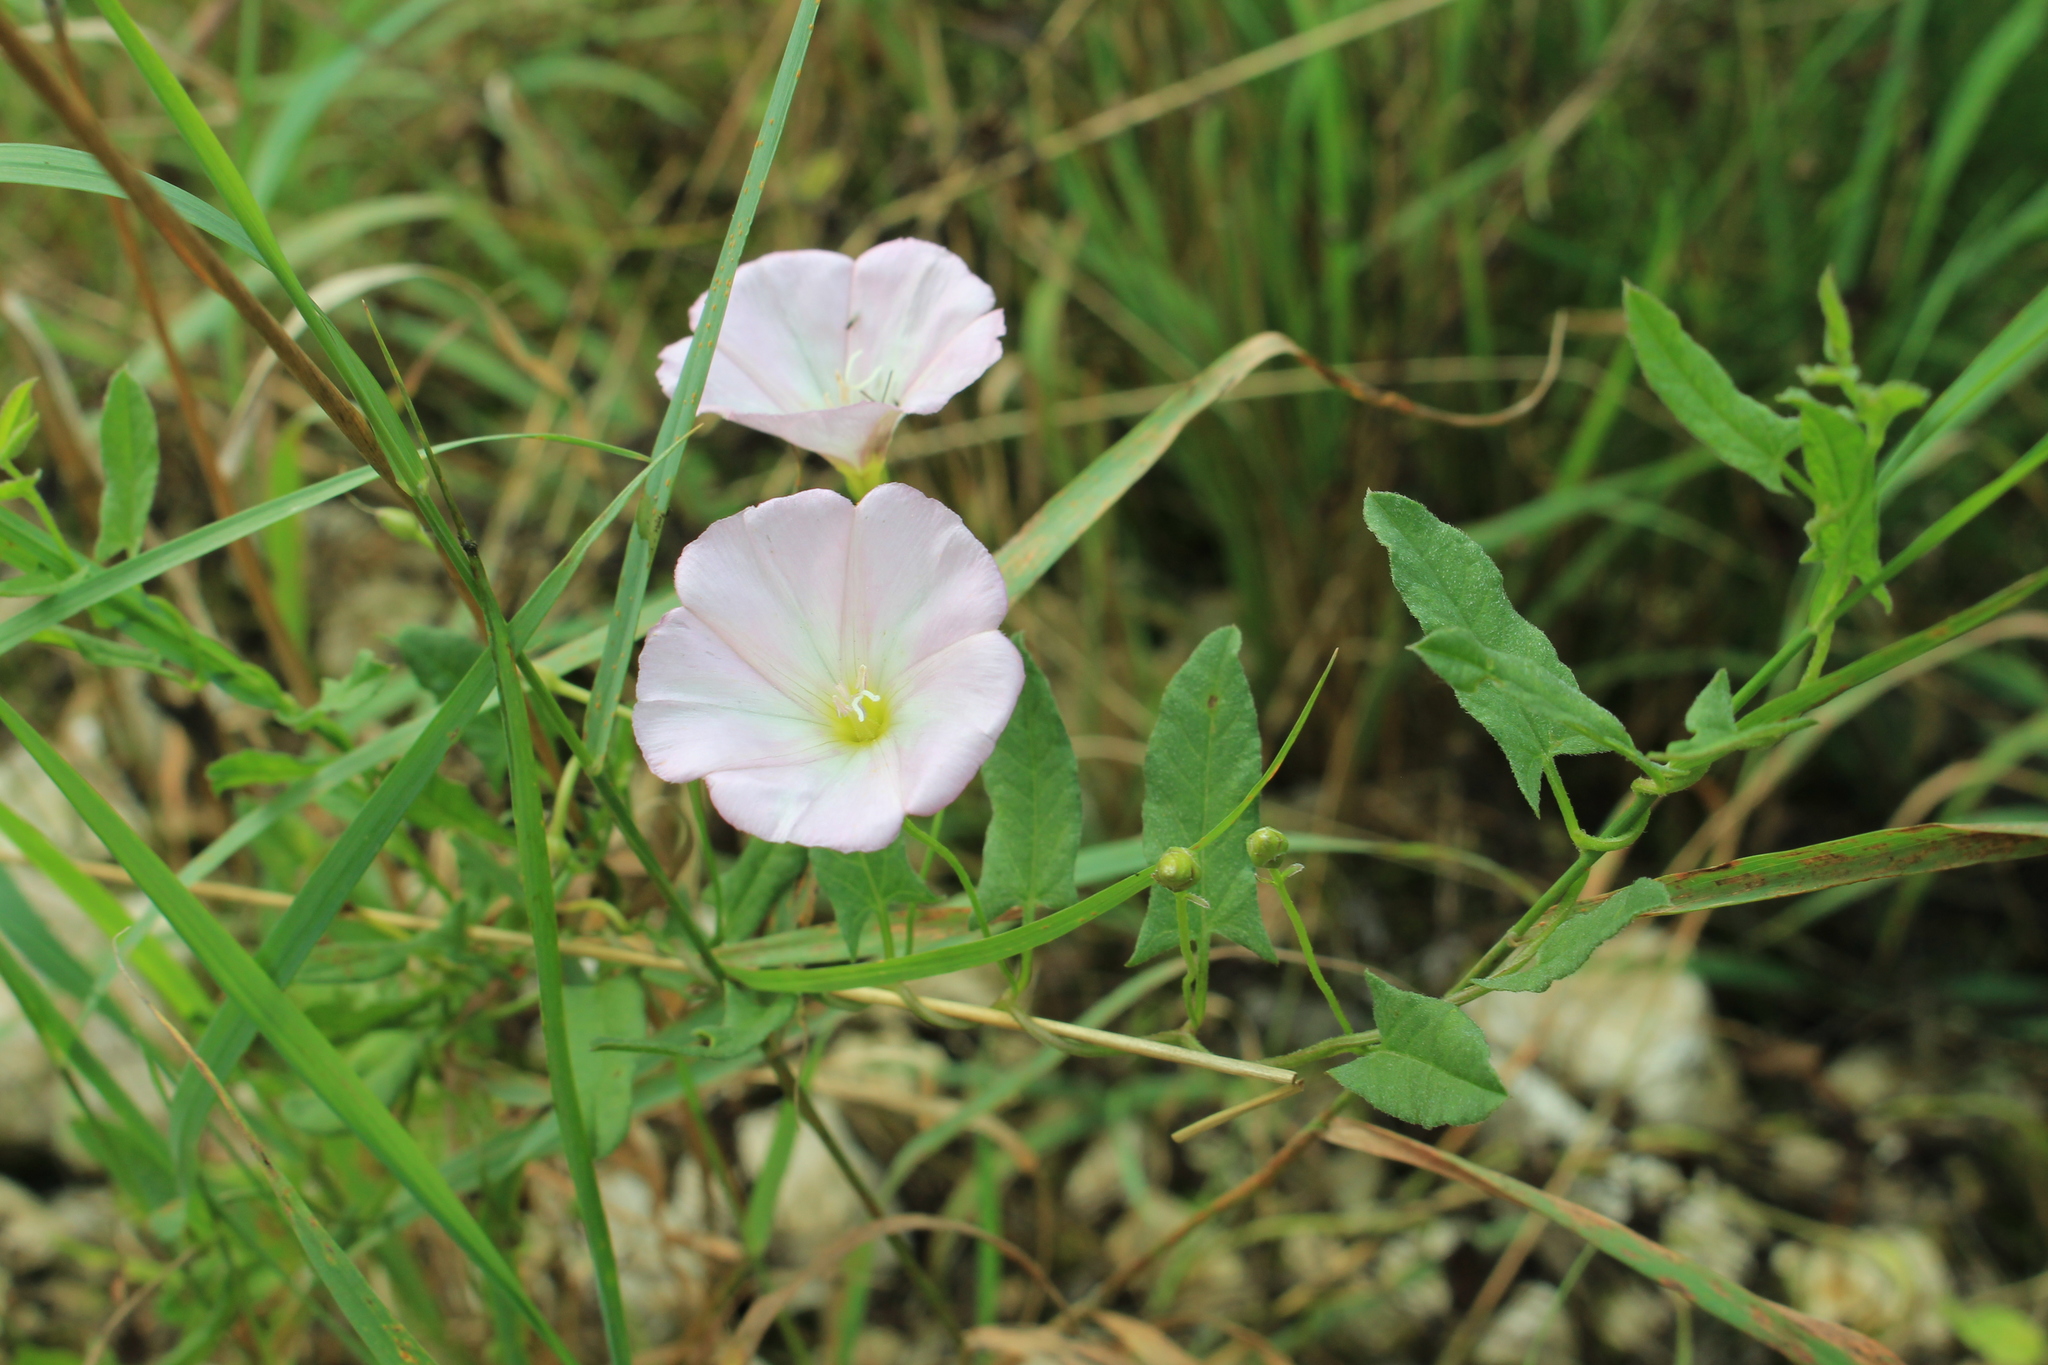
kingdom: Plantae
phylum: Tracheophyta
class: Magnoliopsida
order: Solanales
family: Convolvulaceae
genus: Convolvulus
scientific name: Convolvulus arvensis
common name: Field bindweed
